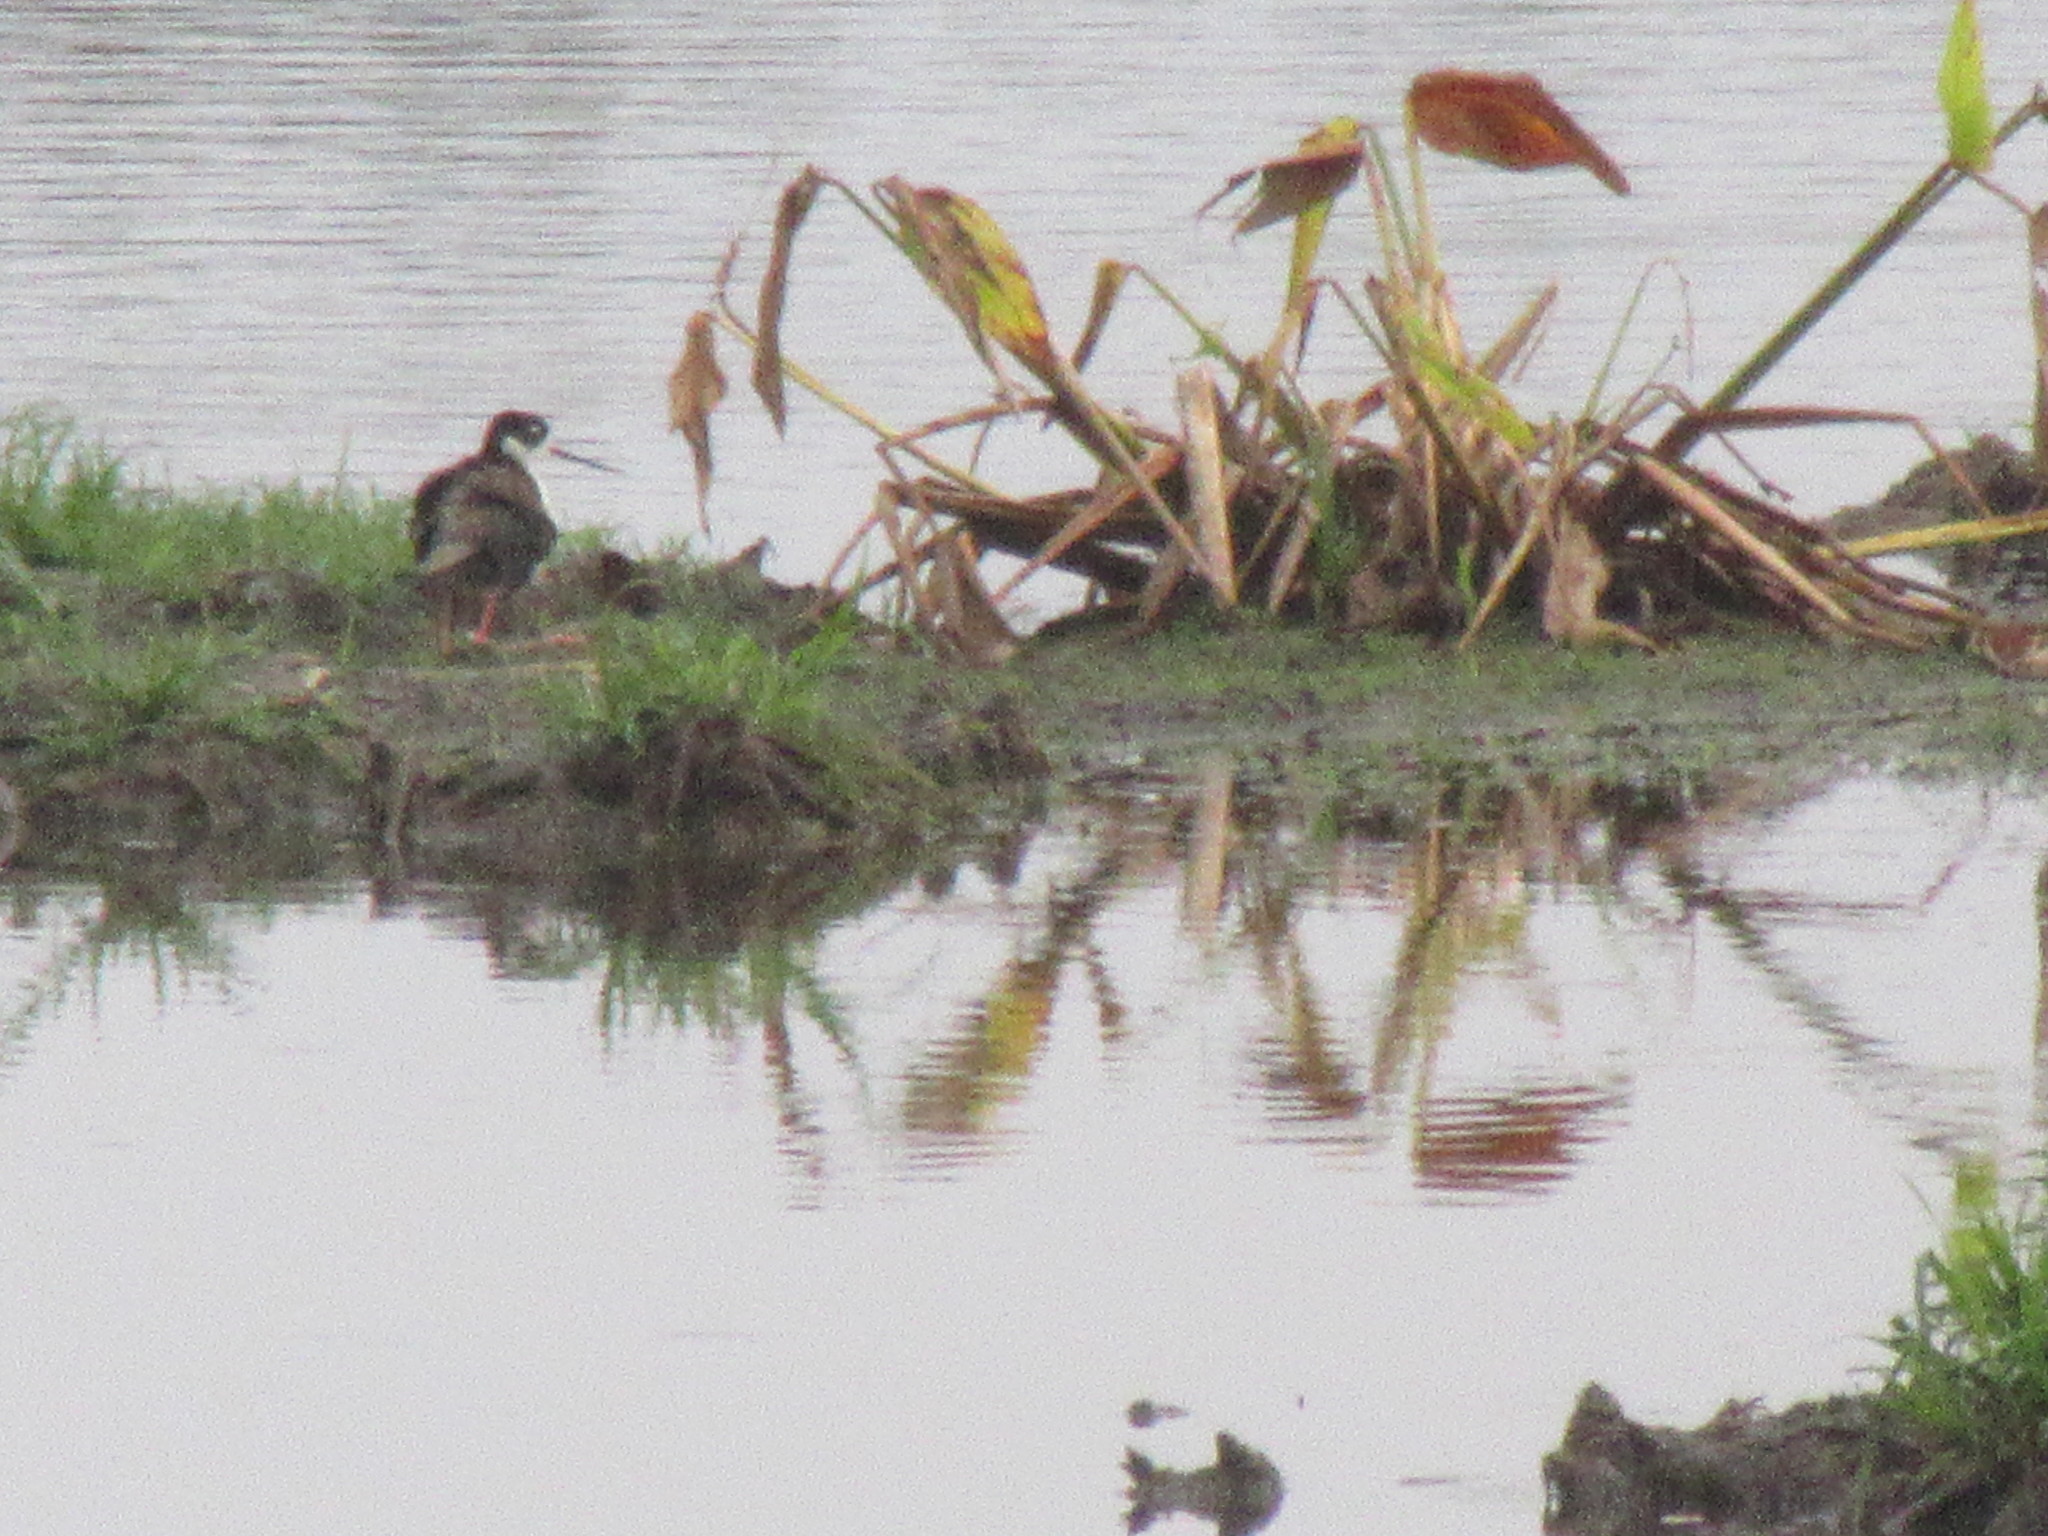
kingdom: Animalia
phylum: Chordata
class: Aves
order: Charadriiformes
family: Recurvirostridae
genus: Himantopus
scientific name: Himantopus mexicanus
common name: Black-necked stilt
